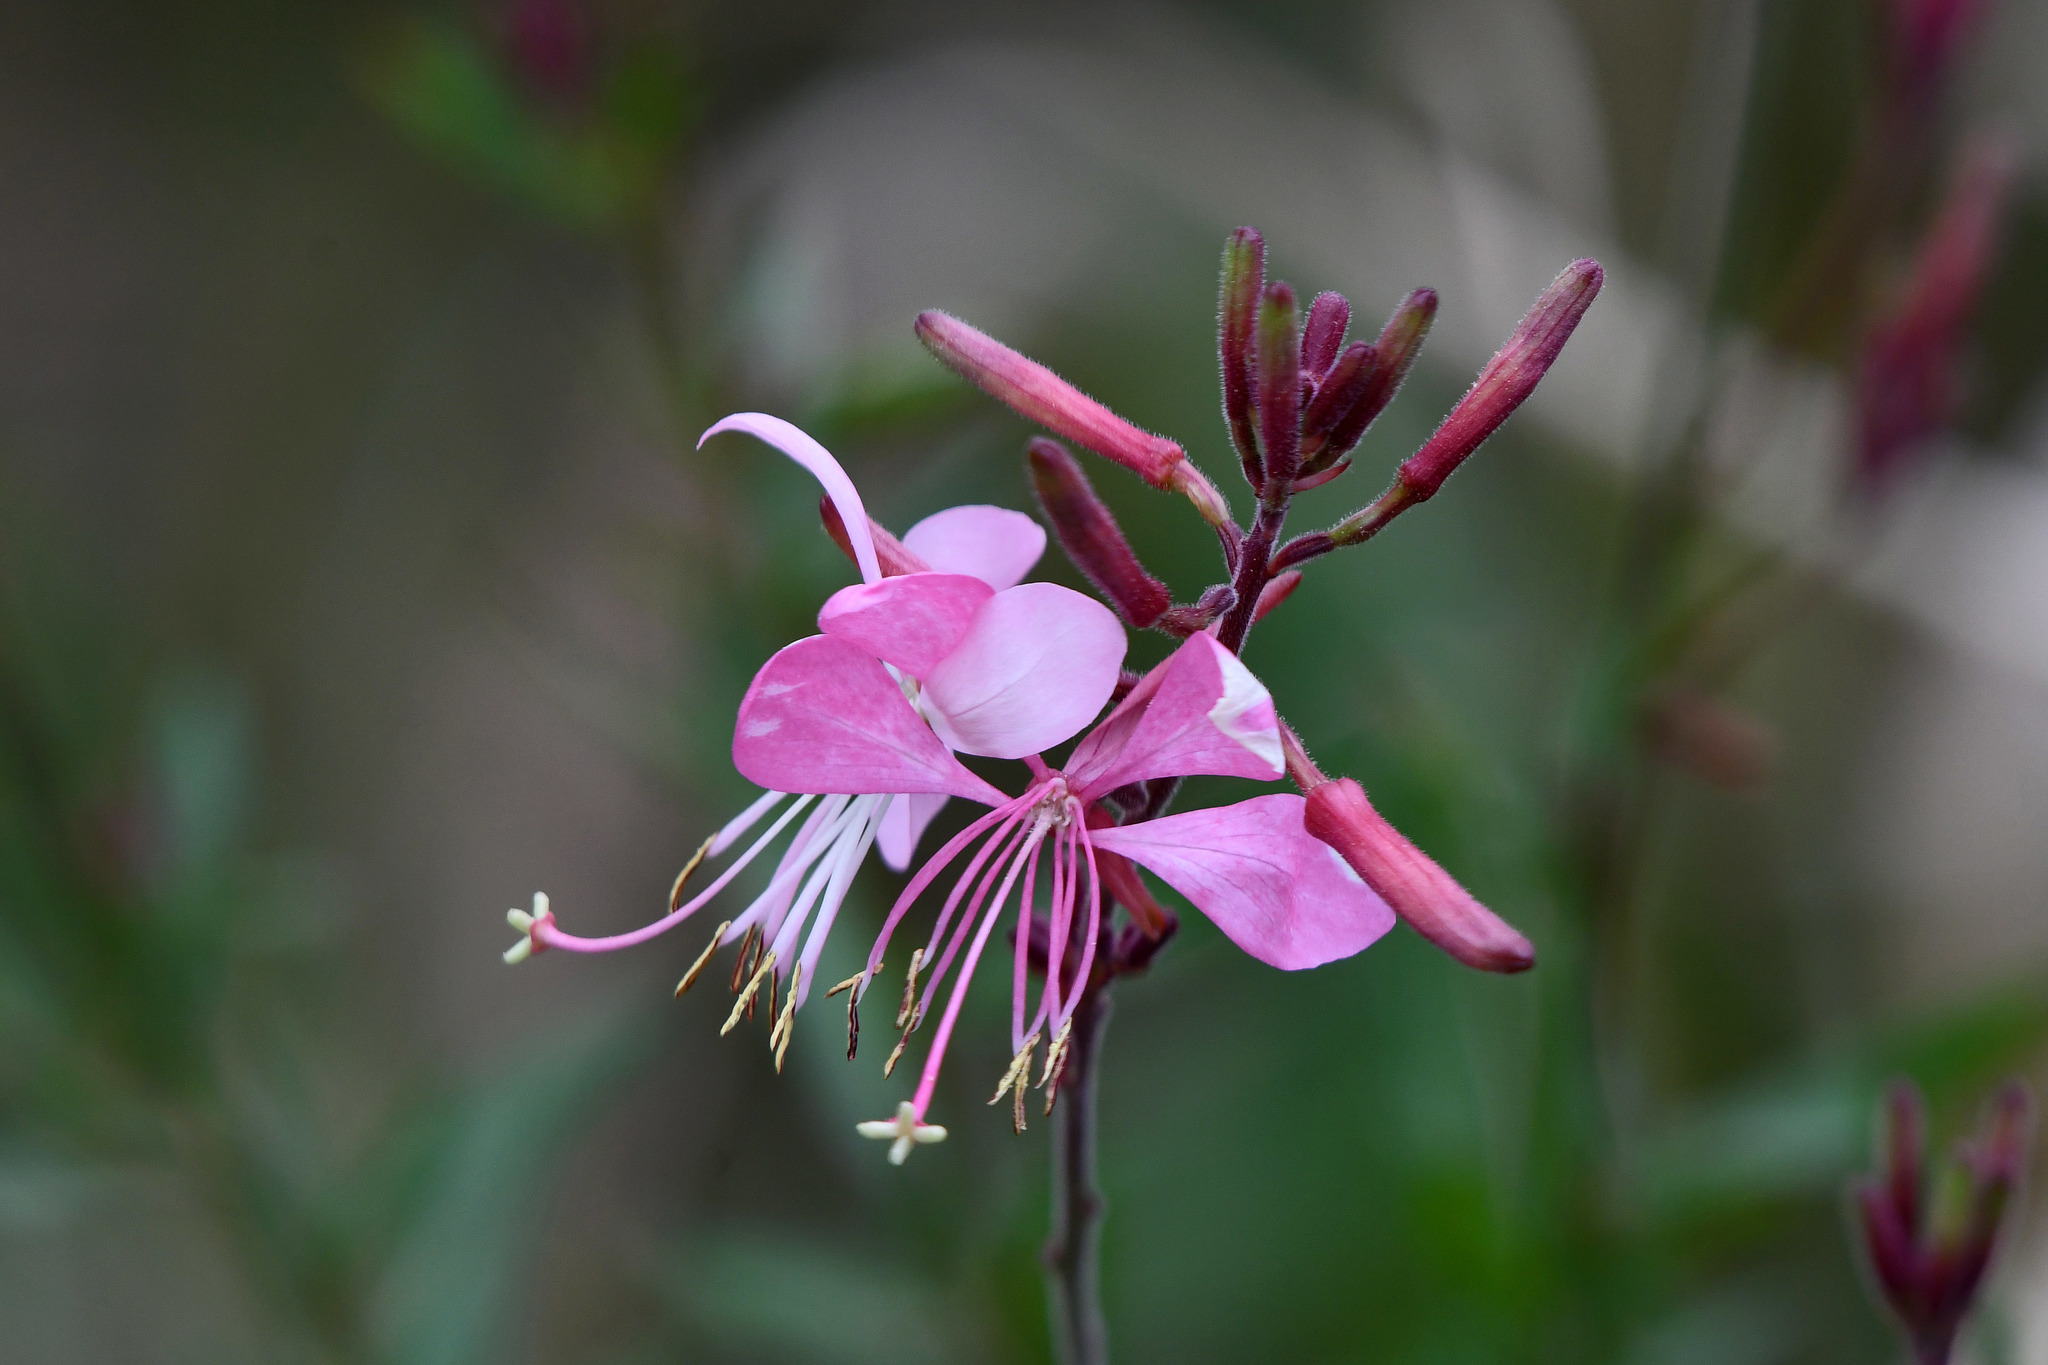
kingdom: Plantae
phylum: Tracheophyta
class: Magnoliopsida
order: Myrtales
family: Onagraceae
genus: Oenothera
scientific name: Oenothera lindheimeri
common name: Lindheimer's beeblossom
